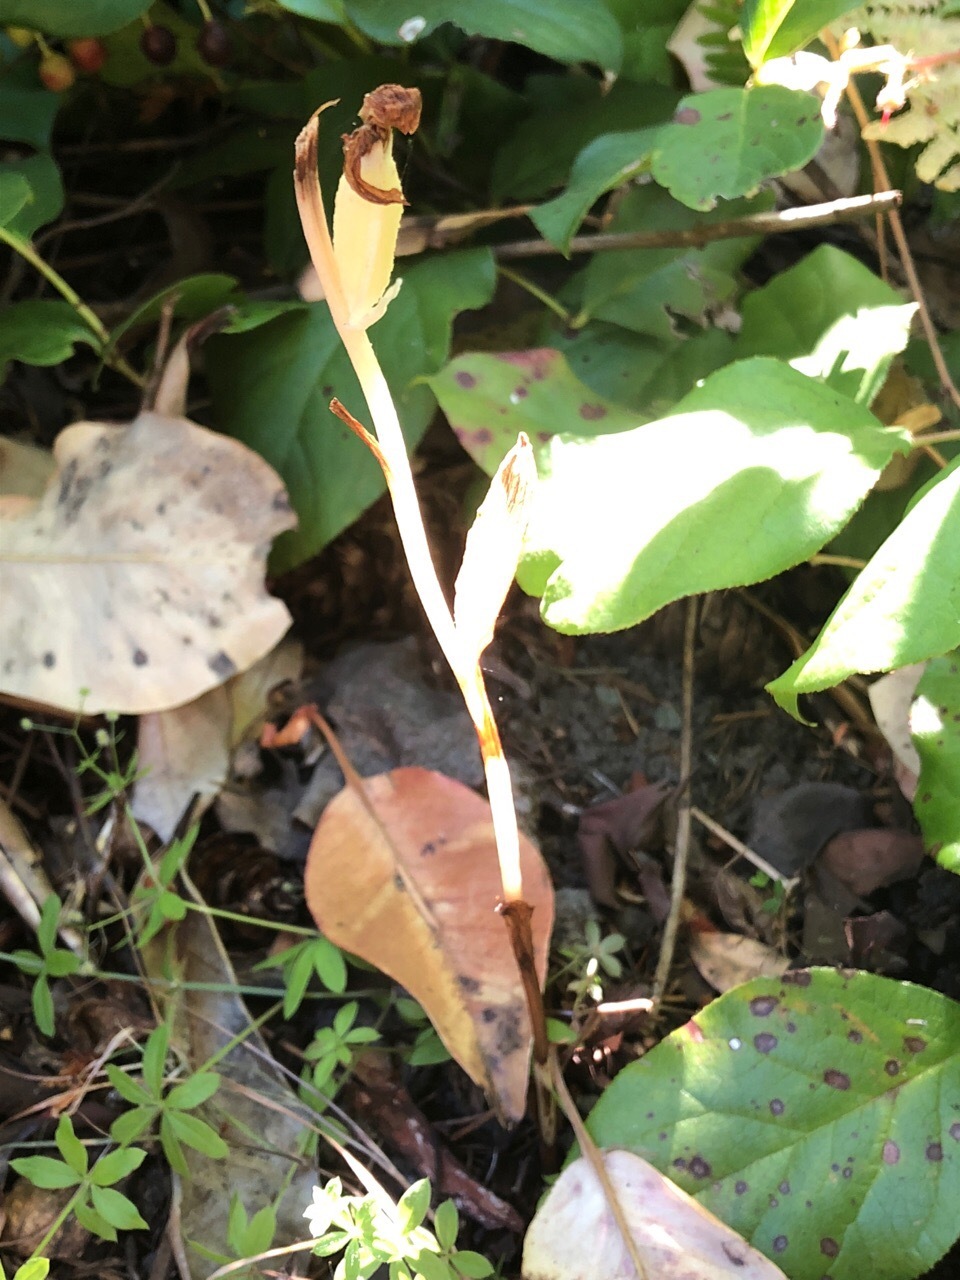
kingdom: Plantae
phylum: Tracheophyta
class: Liliopsida
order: Asparagales
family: Orchidaceae
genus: Cephalanthera
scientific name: Cephalanthera austiniae
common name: Phantom orchid
